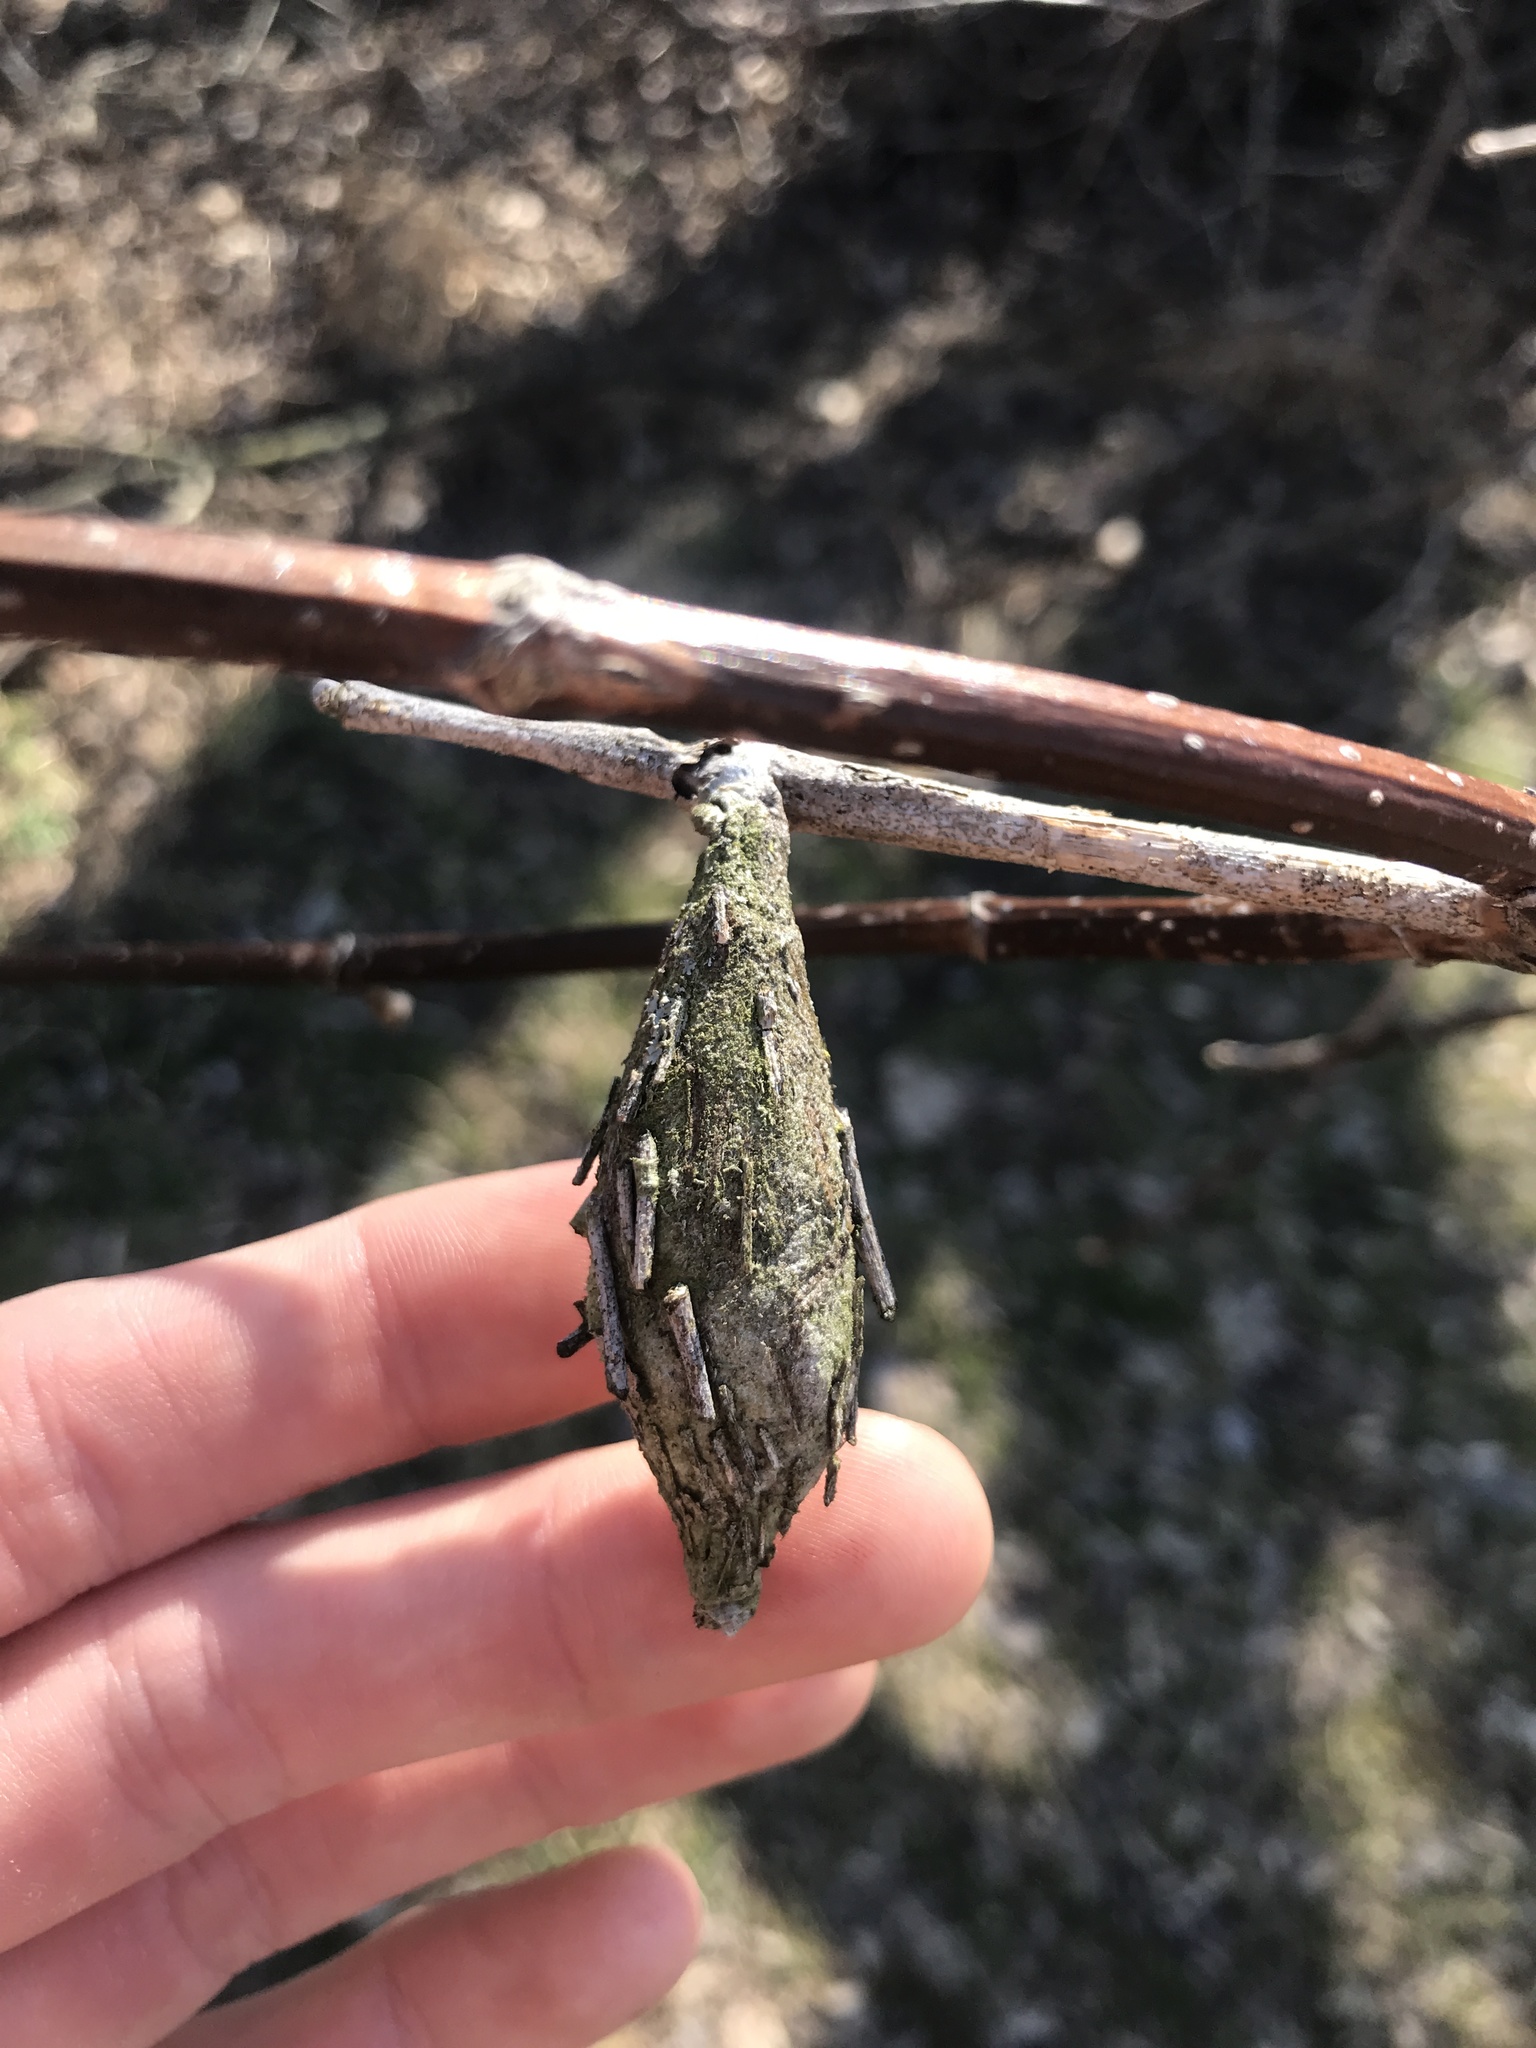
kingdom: Animalia
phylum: Arthropoda
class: Insecta
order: Lepidoptera
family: Psychidae
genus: Thyridopteryx
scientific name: Thyridopteryx ephemeraeformis
